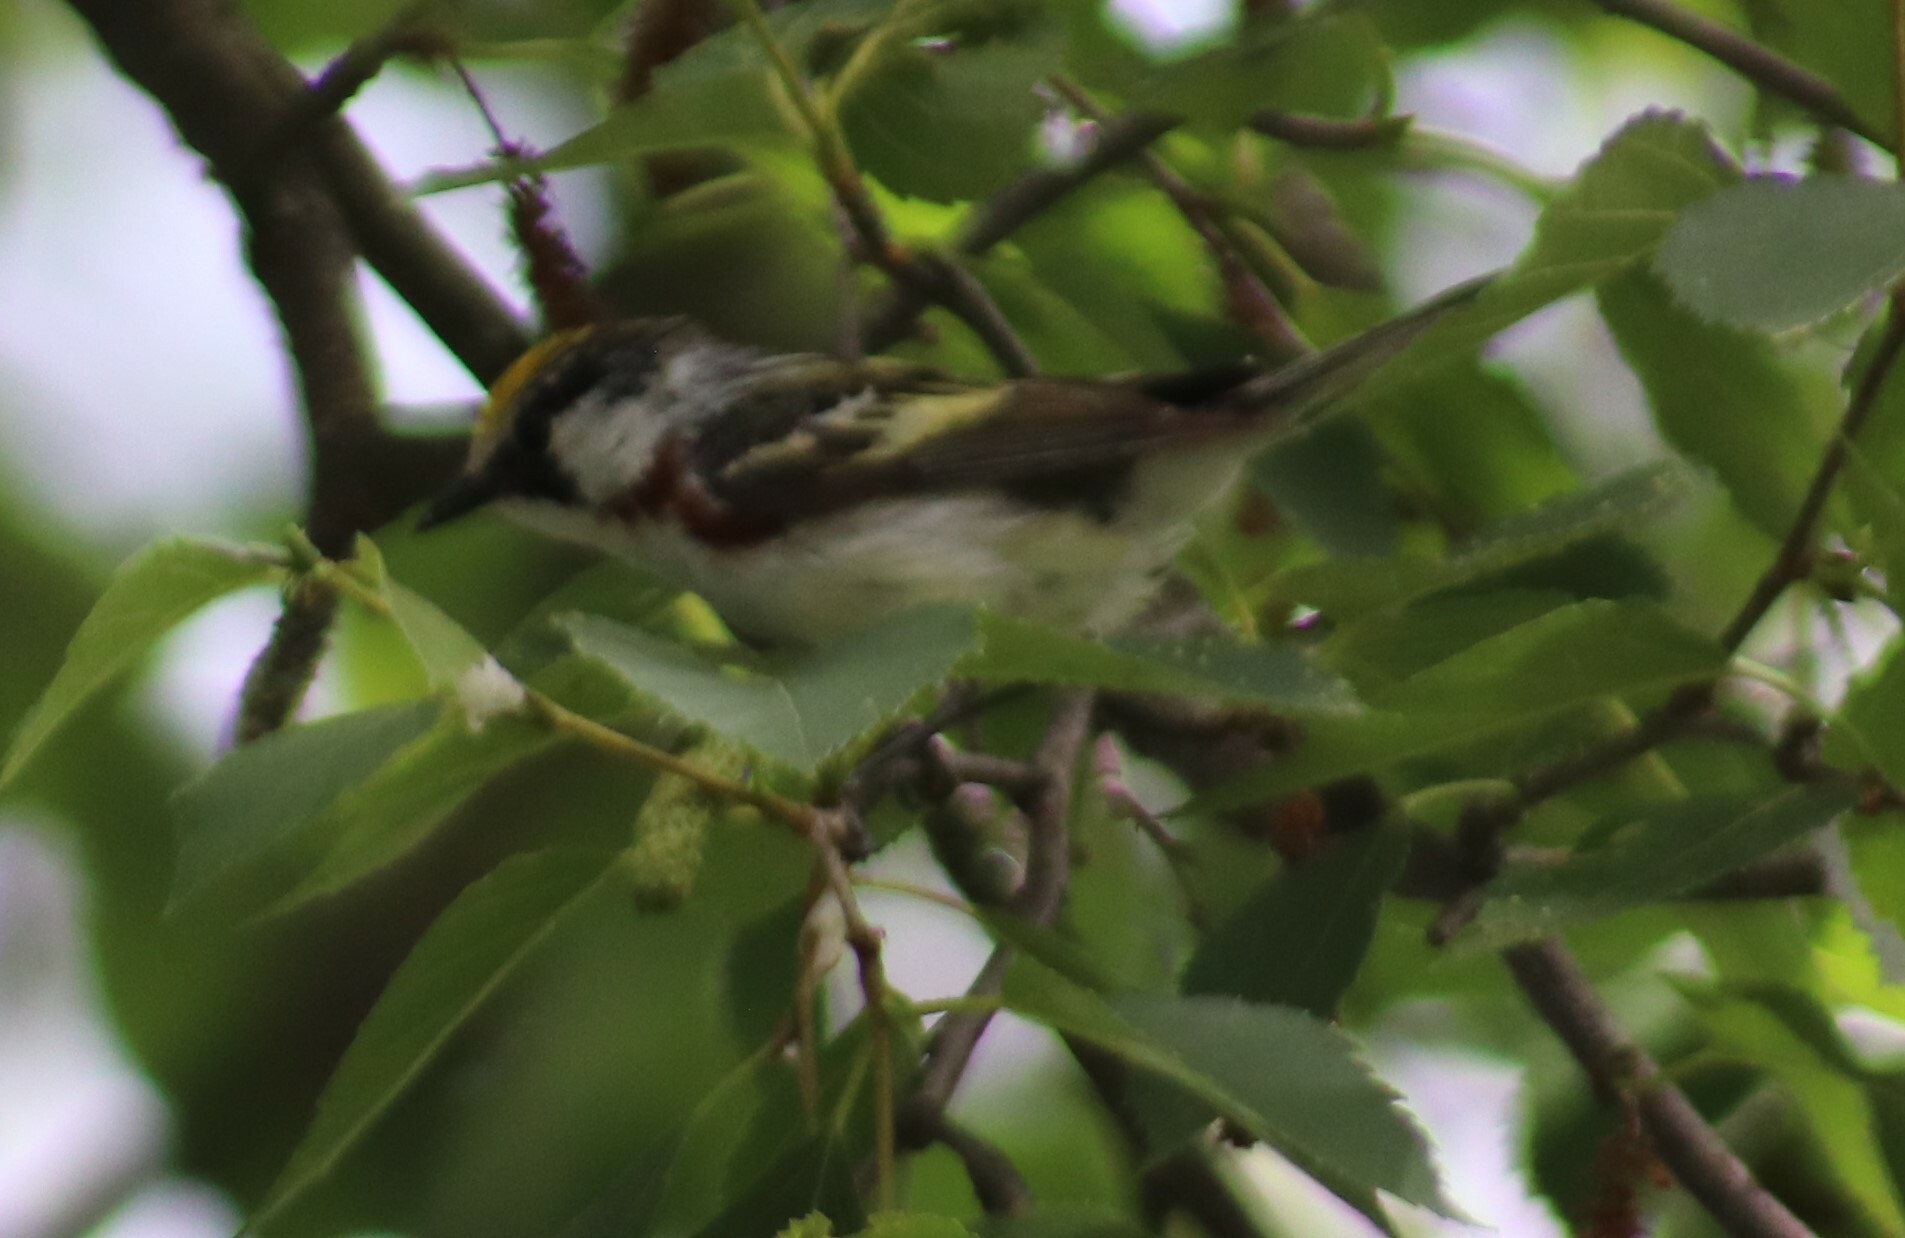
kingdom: Animalia
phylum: Chordata
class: Aves
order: Passeriformes
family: Parulidae
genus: Setophaga
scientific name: Setophaga pensylvanica
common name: Chestnut-sided warbler
